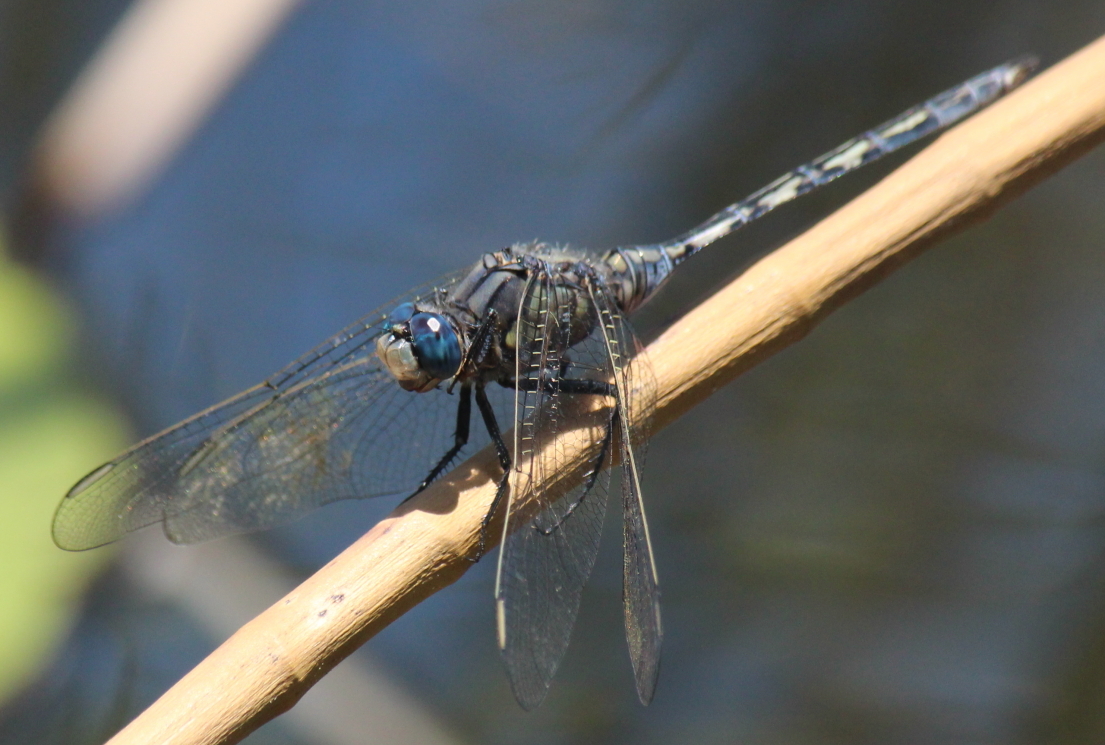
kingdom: Animalia
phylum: Arthropoda
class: Insecta
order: Odonata
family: Libellulidae
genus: Orthetrum
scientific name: Orthetrum trinacria
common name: Long skimmer
